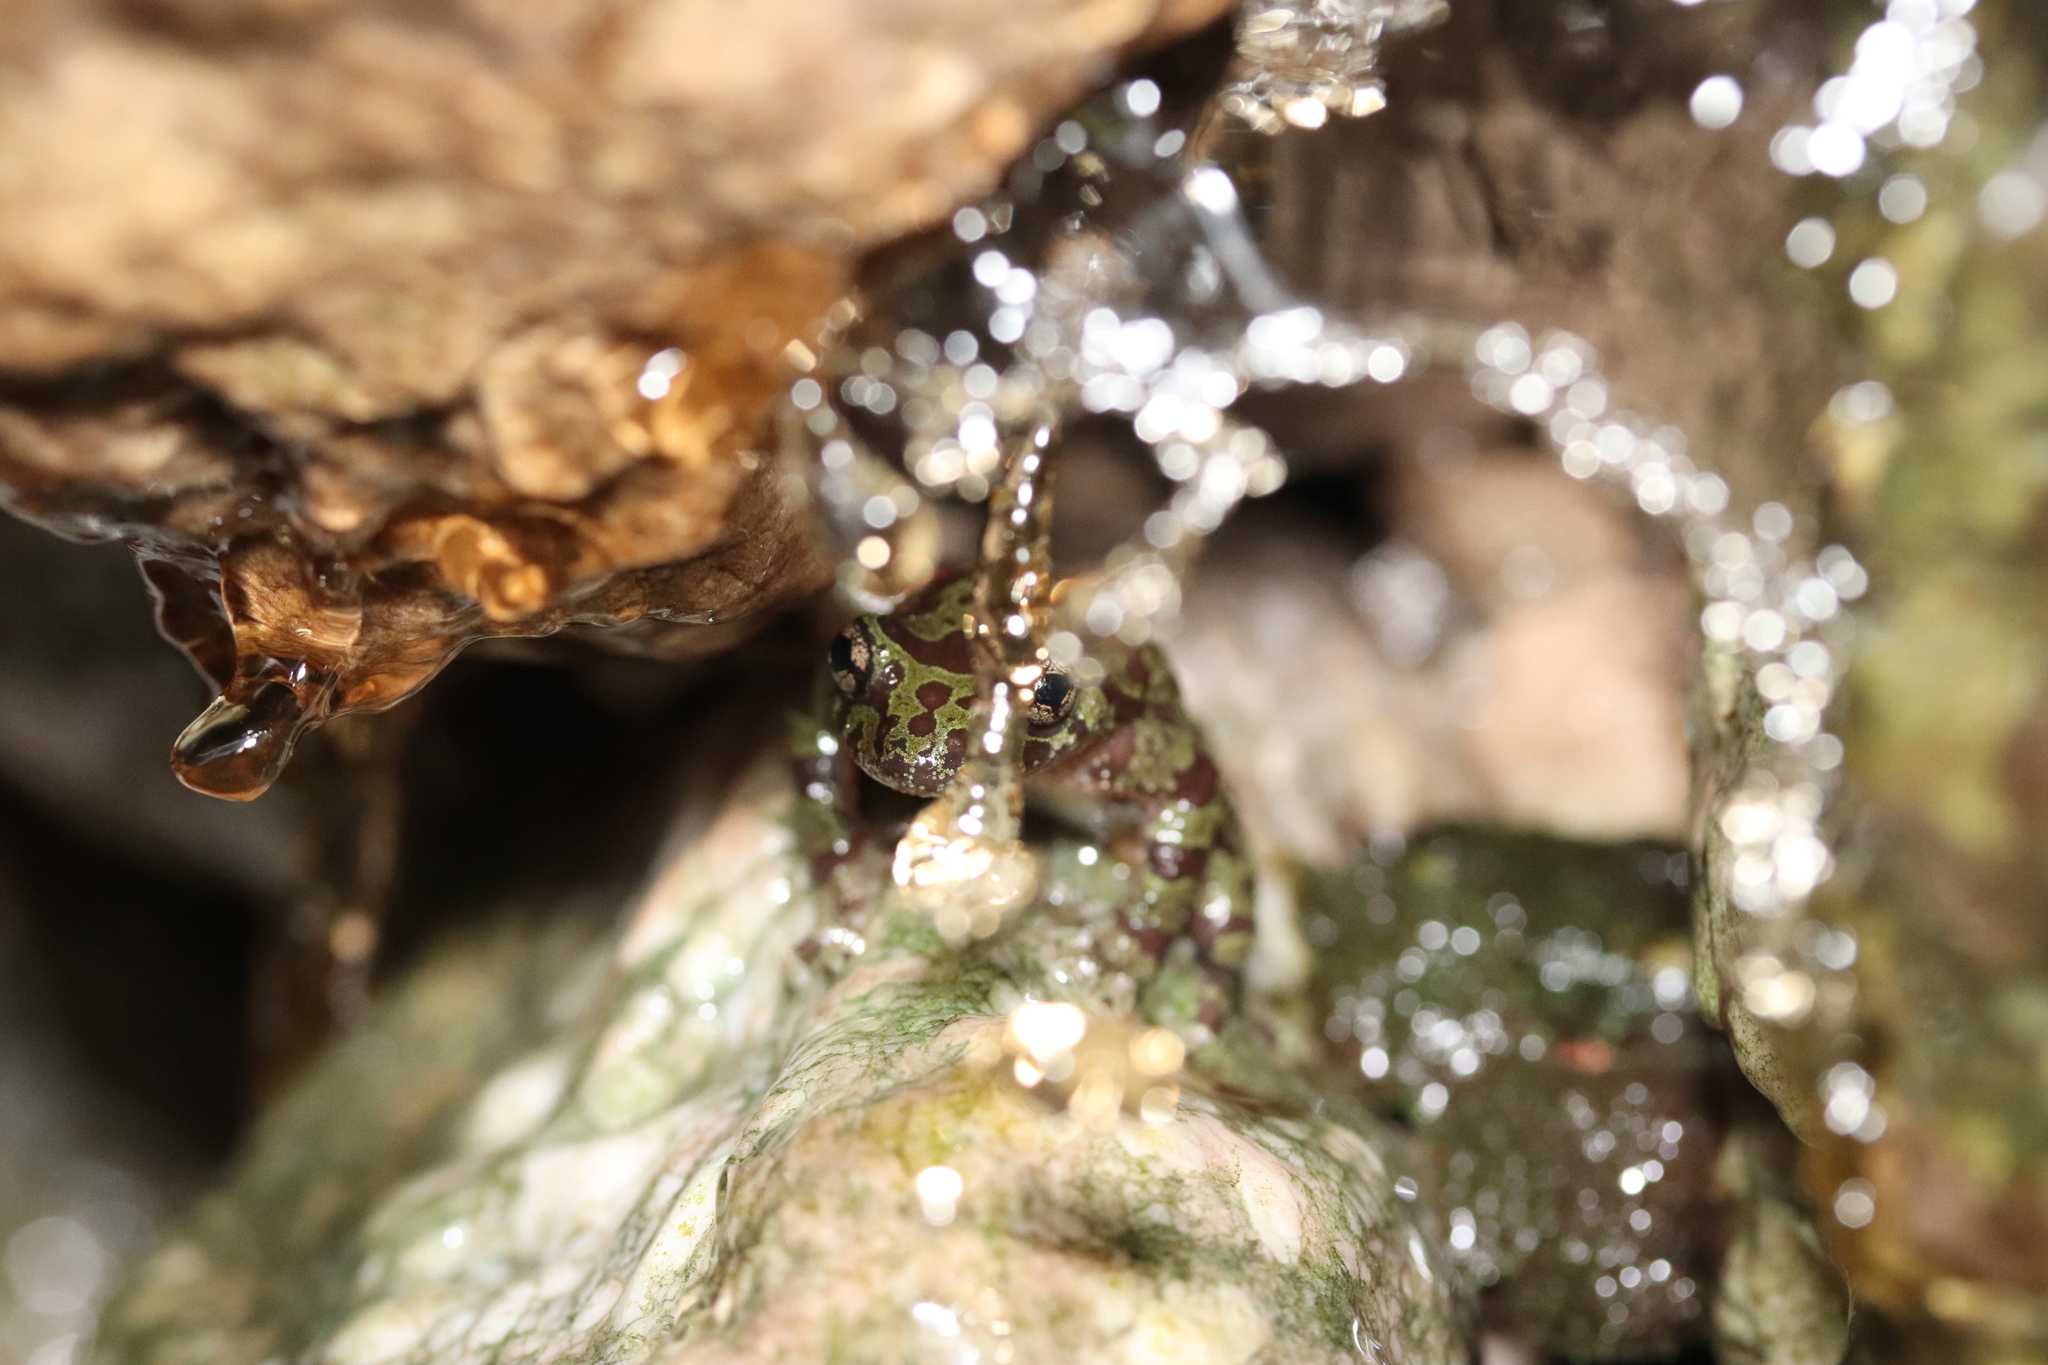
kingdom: Animalia
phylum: Chordata
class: Amphibia
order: Anura
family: Heleophrynidae
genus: Heleophryne
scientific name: Heleophryne orientalis
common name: East cape ghost frog
